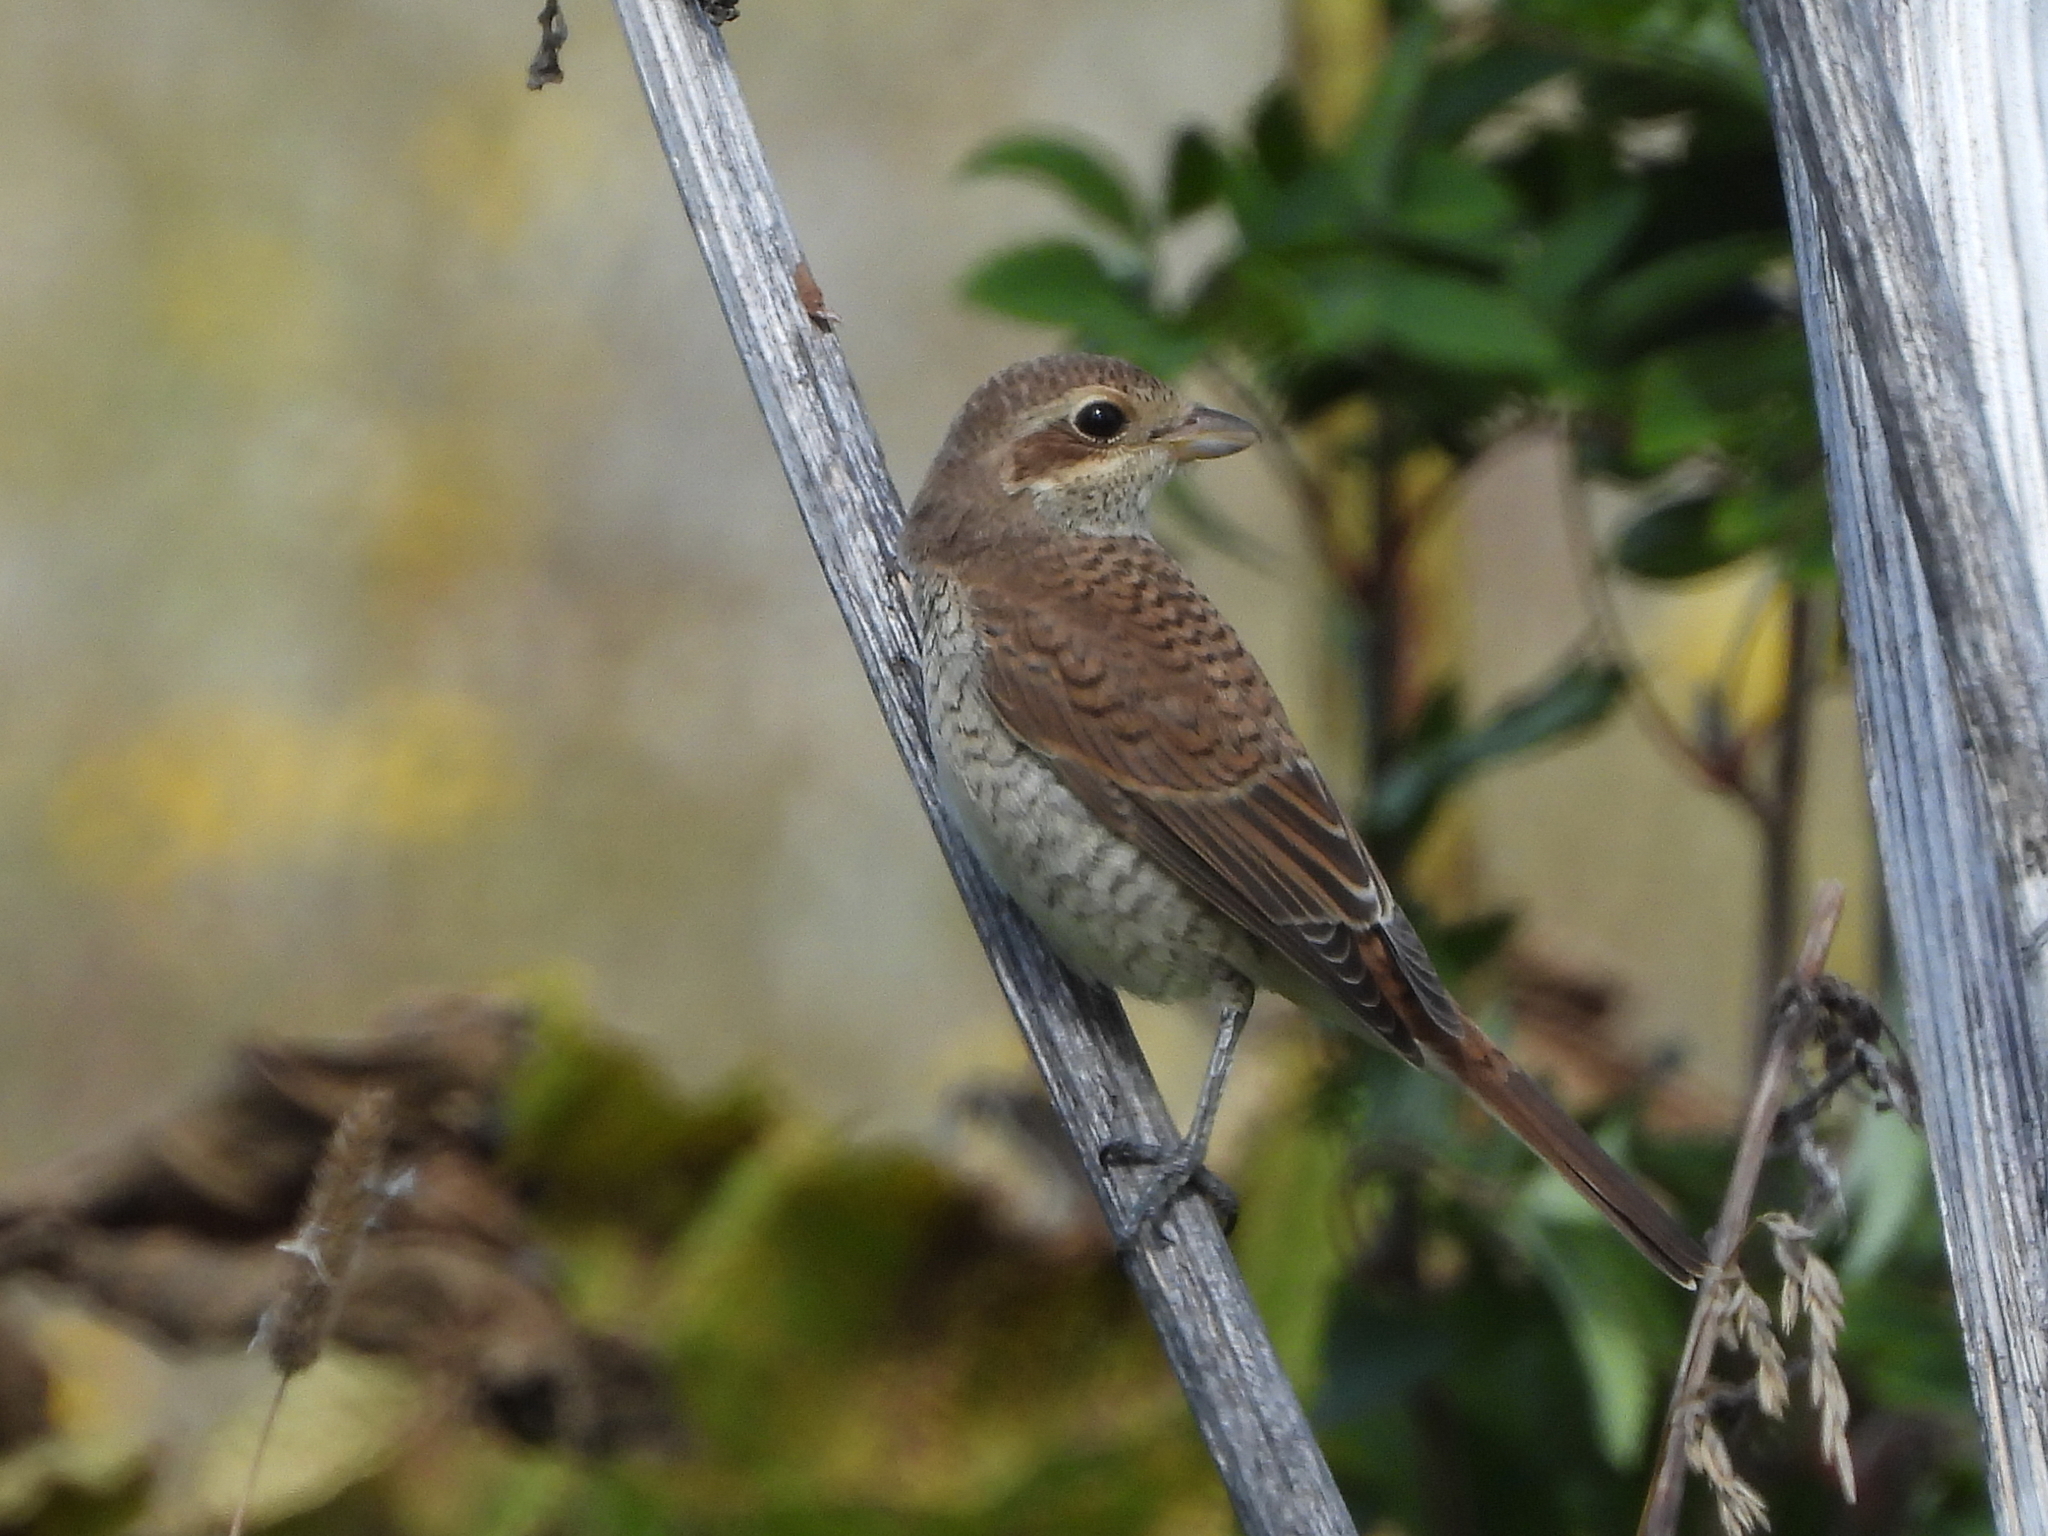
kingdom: Animalia
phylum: Chordata
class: Aves
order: Passeriformes
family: Laniidae
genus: Lanius
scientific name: Lanius collurio
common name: Red-backed shrike
